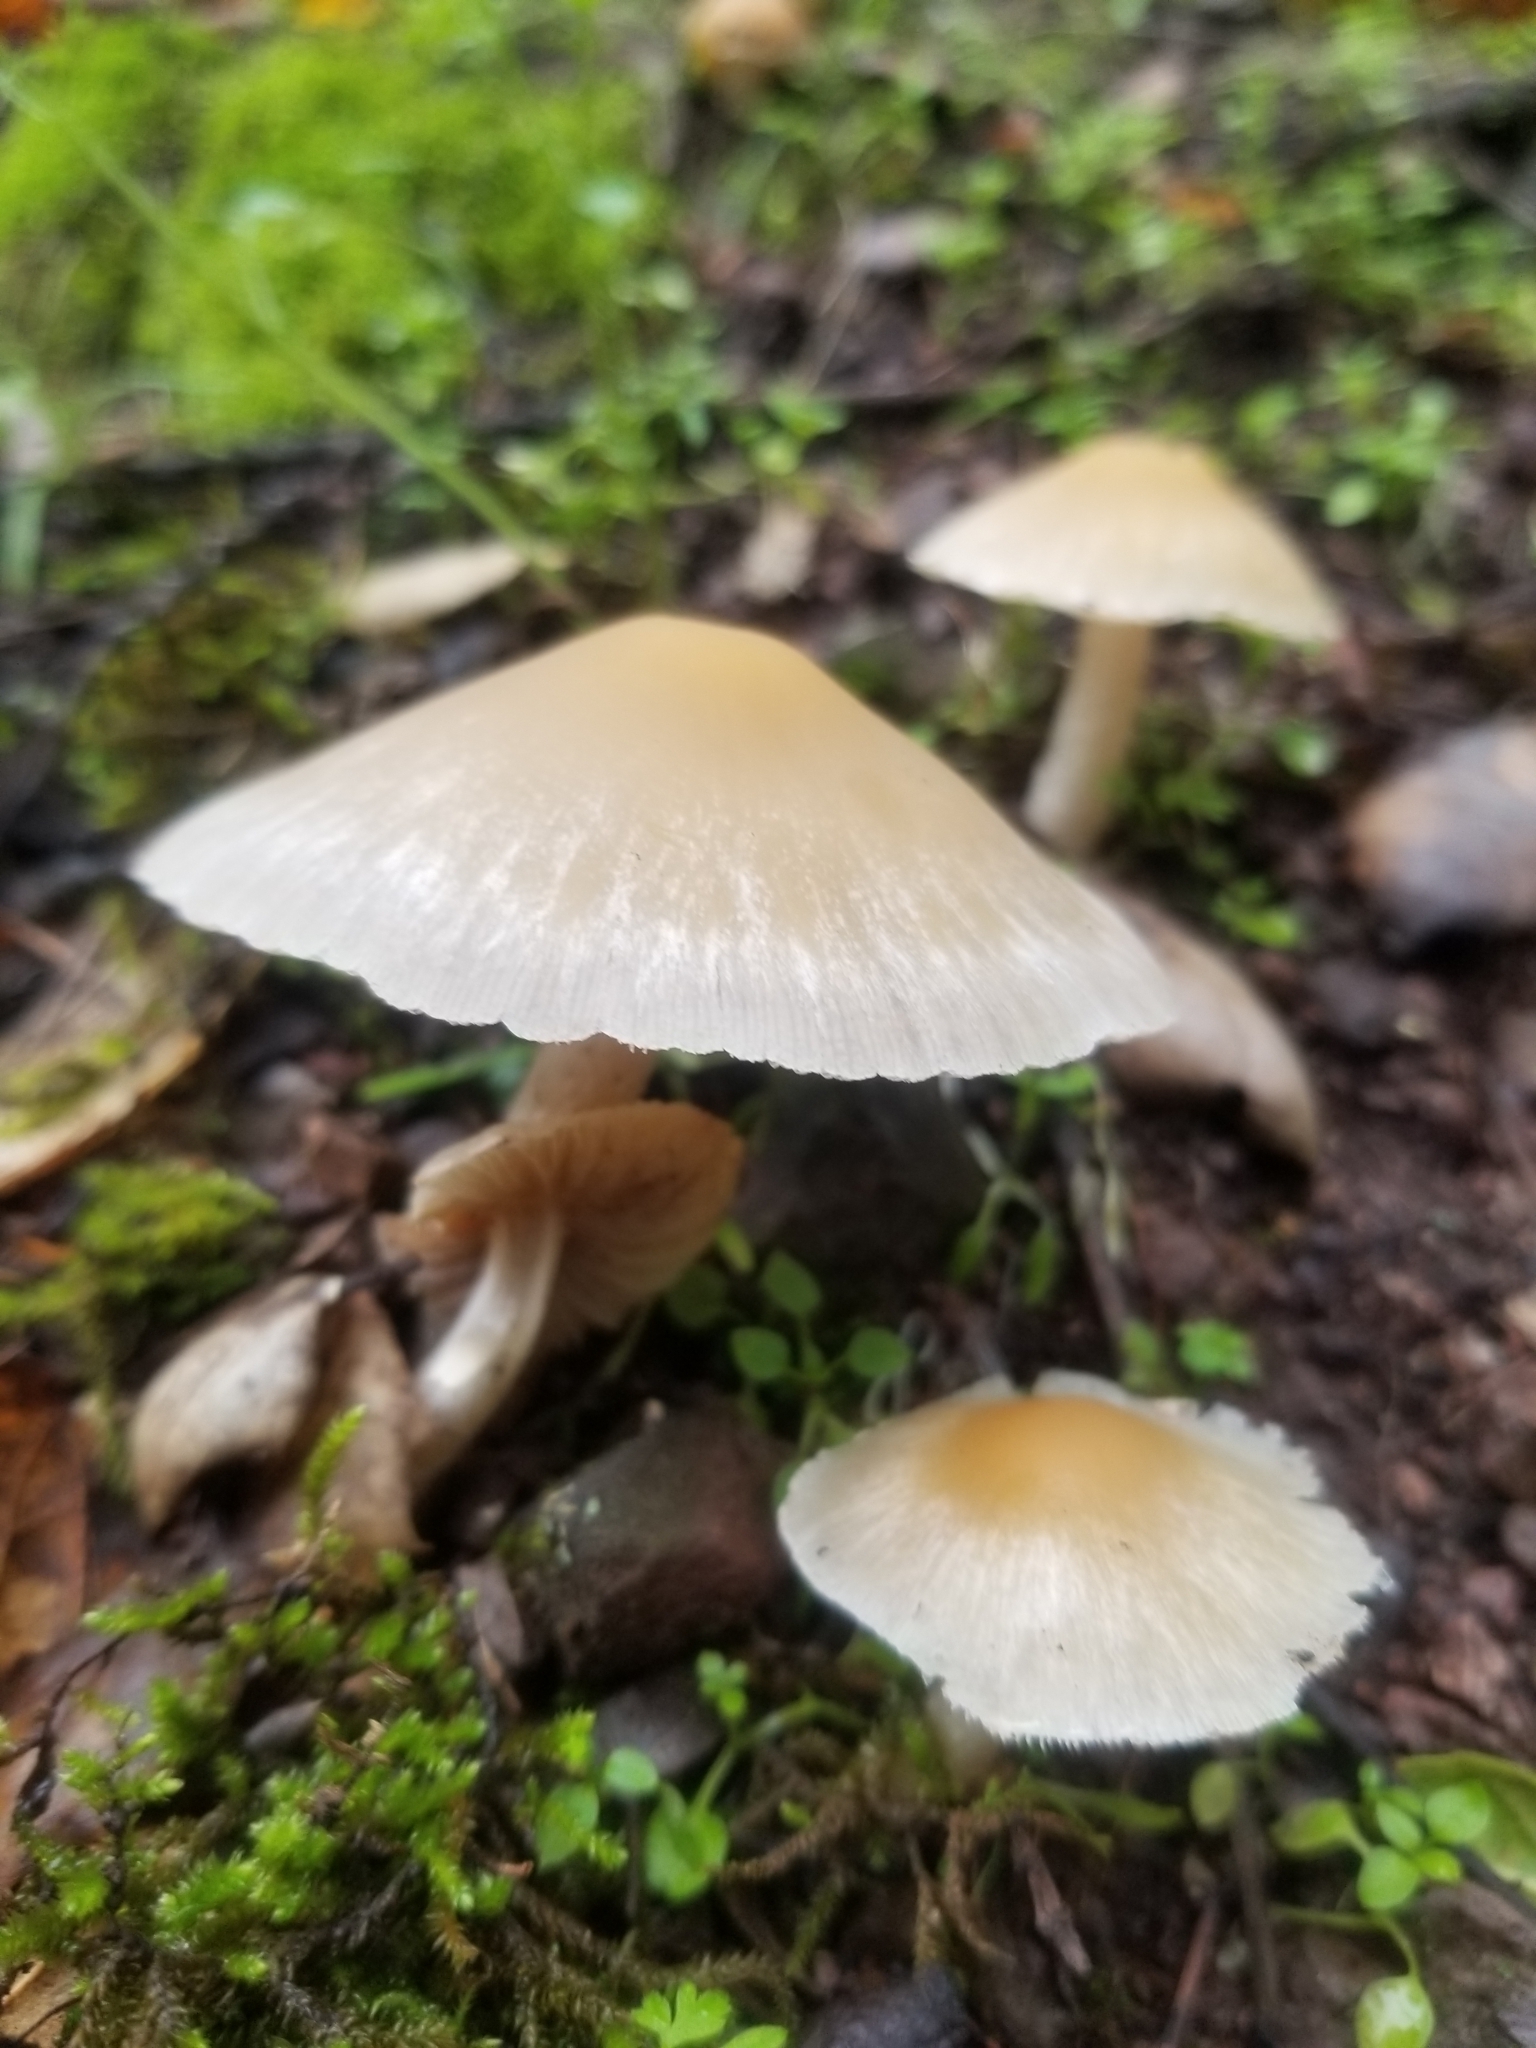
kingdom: Fungi
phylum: Basidiomycota
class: Agaricomycetes
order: Agaricales
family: Psathyrellaceae
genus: Candolleomyces
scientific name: Candolleomyces candolleanus
